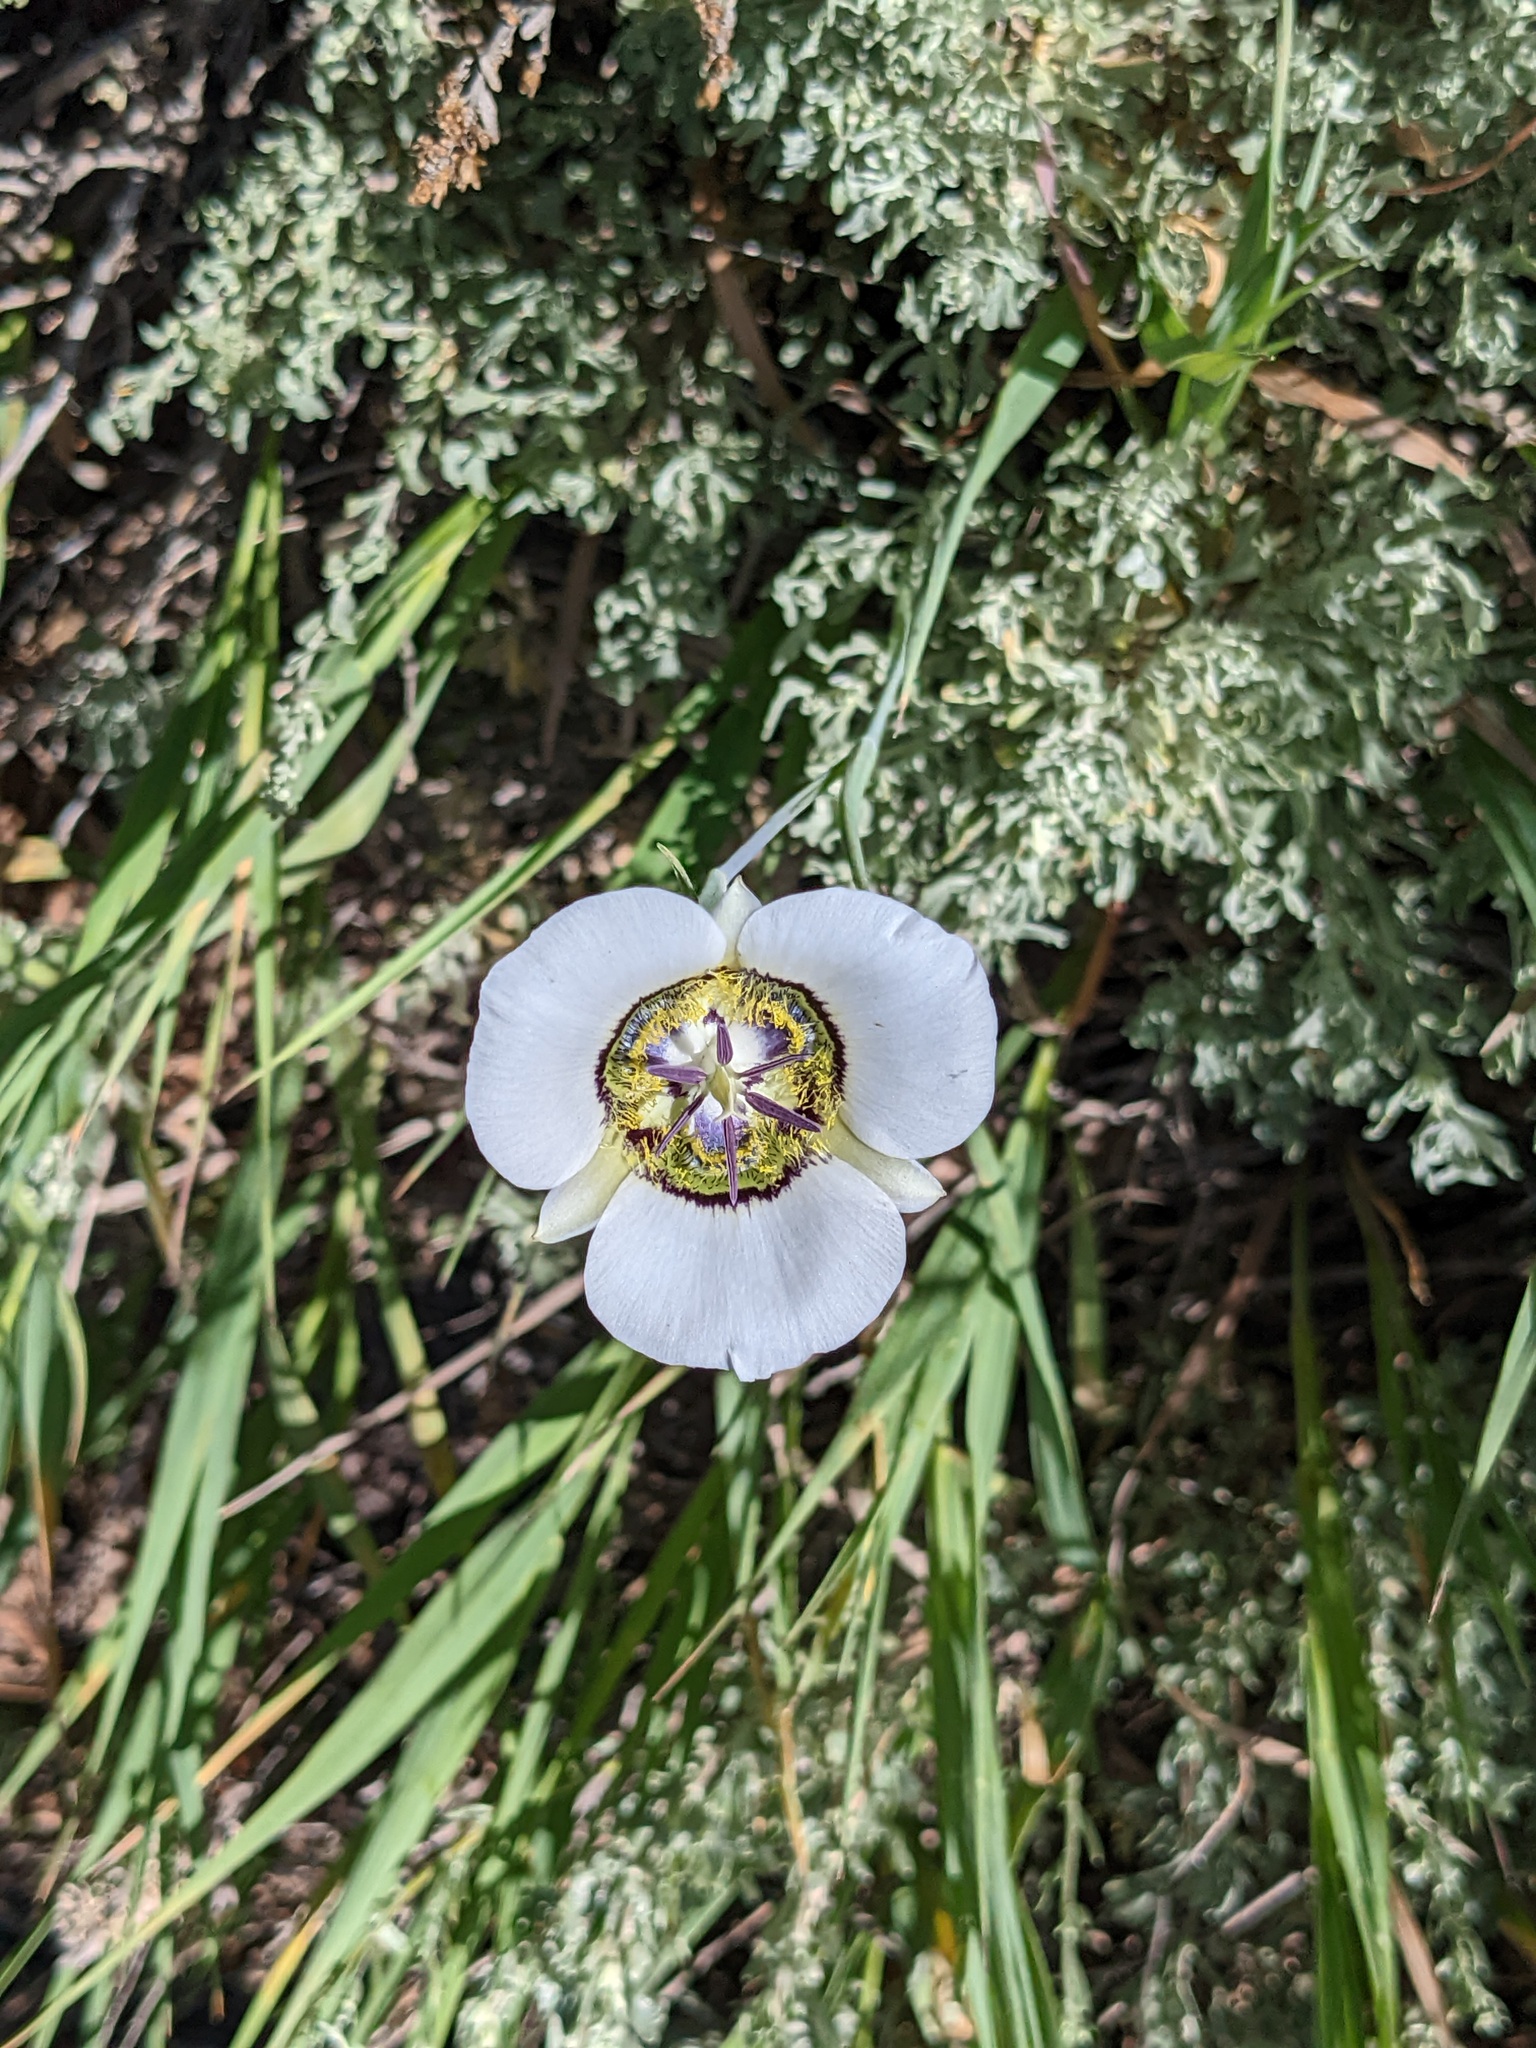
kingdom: Plantae
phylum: Tracheophyta
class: Liliopsida
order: Liliales
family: Liliaceae
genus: Calochortus
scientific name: Calochortus gunnisonii
